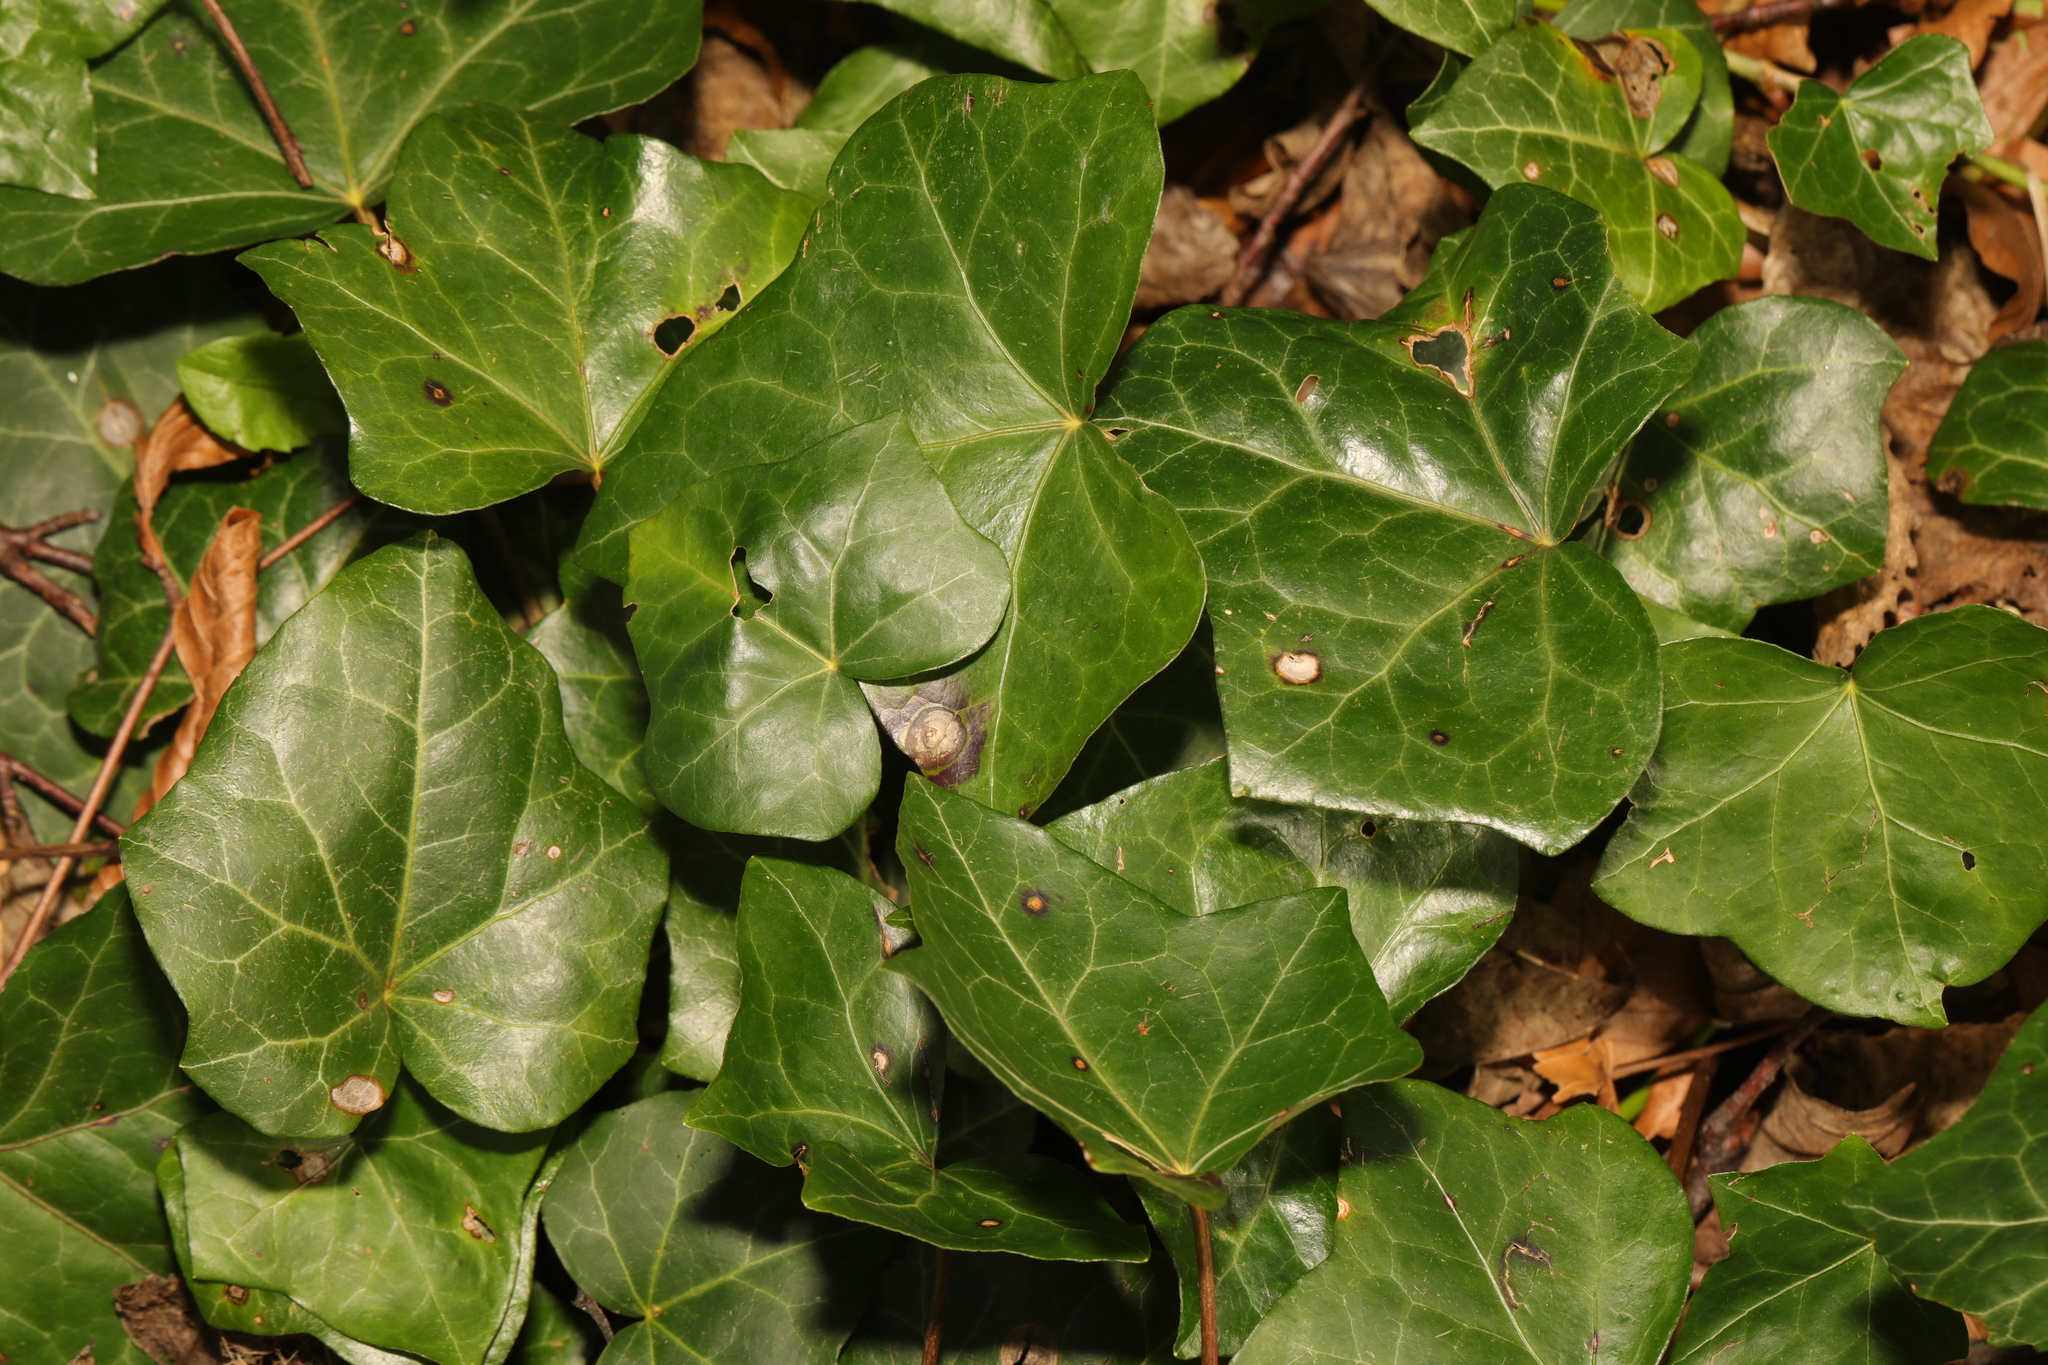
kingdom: Plantae
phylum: Tracheophyta
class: Magnoliopsida
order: Apiales
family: Araliaceae
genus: Hedera
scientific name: Hedera helix
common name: Ivy
